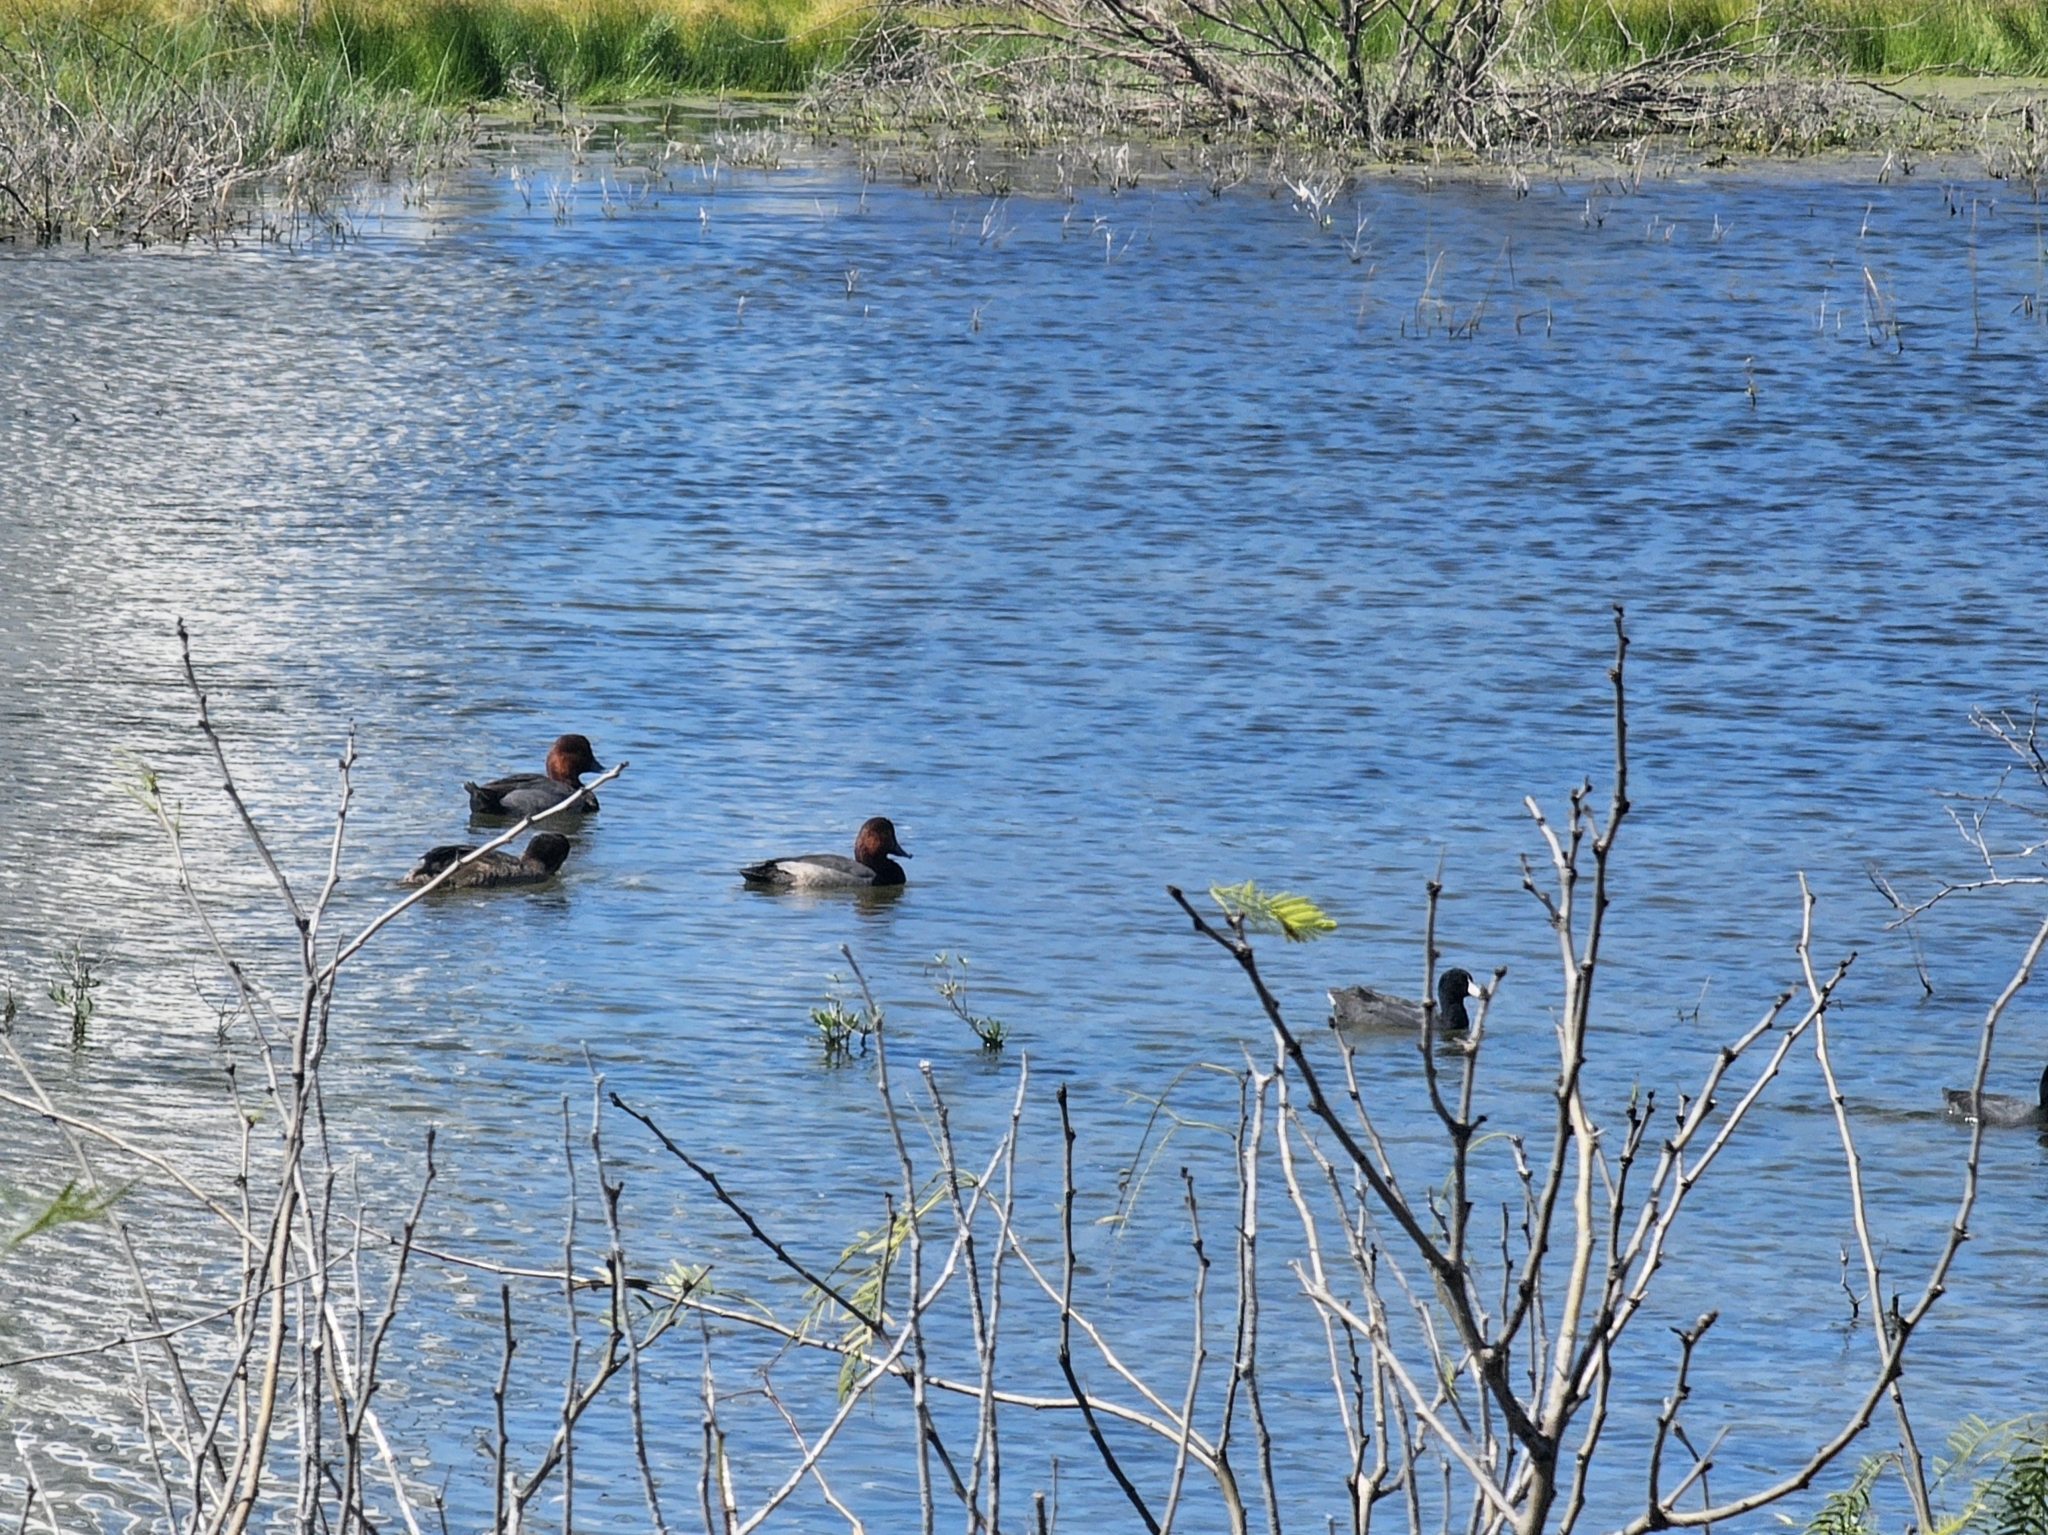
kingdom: Animalia
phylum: Chordata
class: Aves
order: Anseriformes
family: Anatidae
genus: Aythya
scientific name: Aythya americana
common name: Redhead
